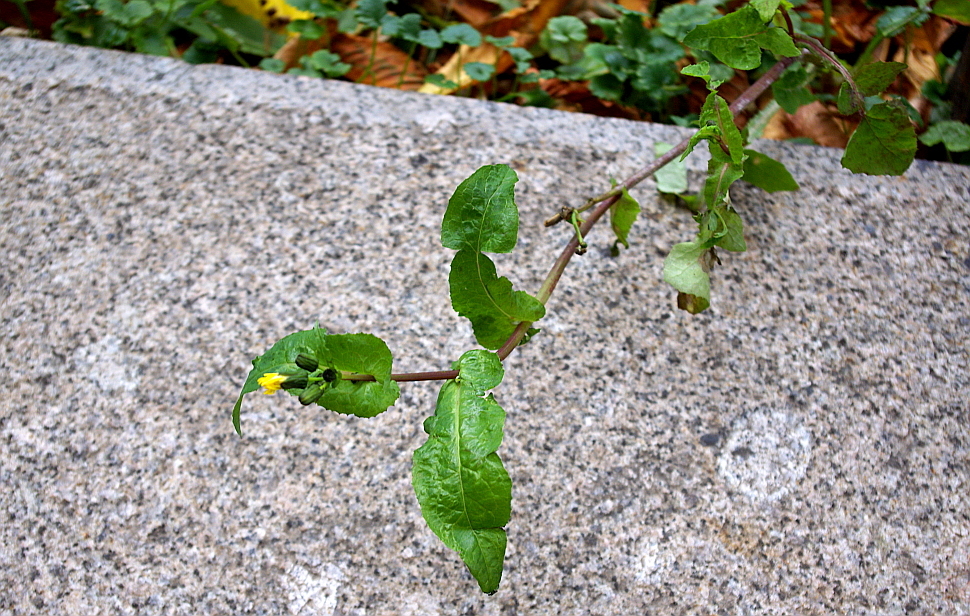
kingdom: Plantae
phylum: Tracheophyta
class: Magnoliopsida
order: Asterales
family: Asteraceae
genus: Sonchus
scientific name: Sonchus oleraceus
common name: Common sowthistle
